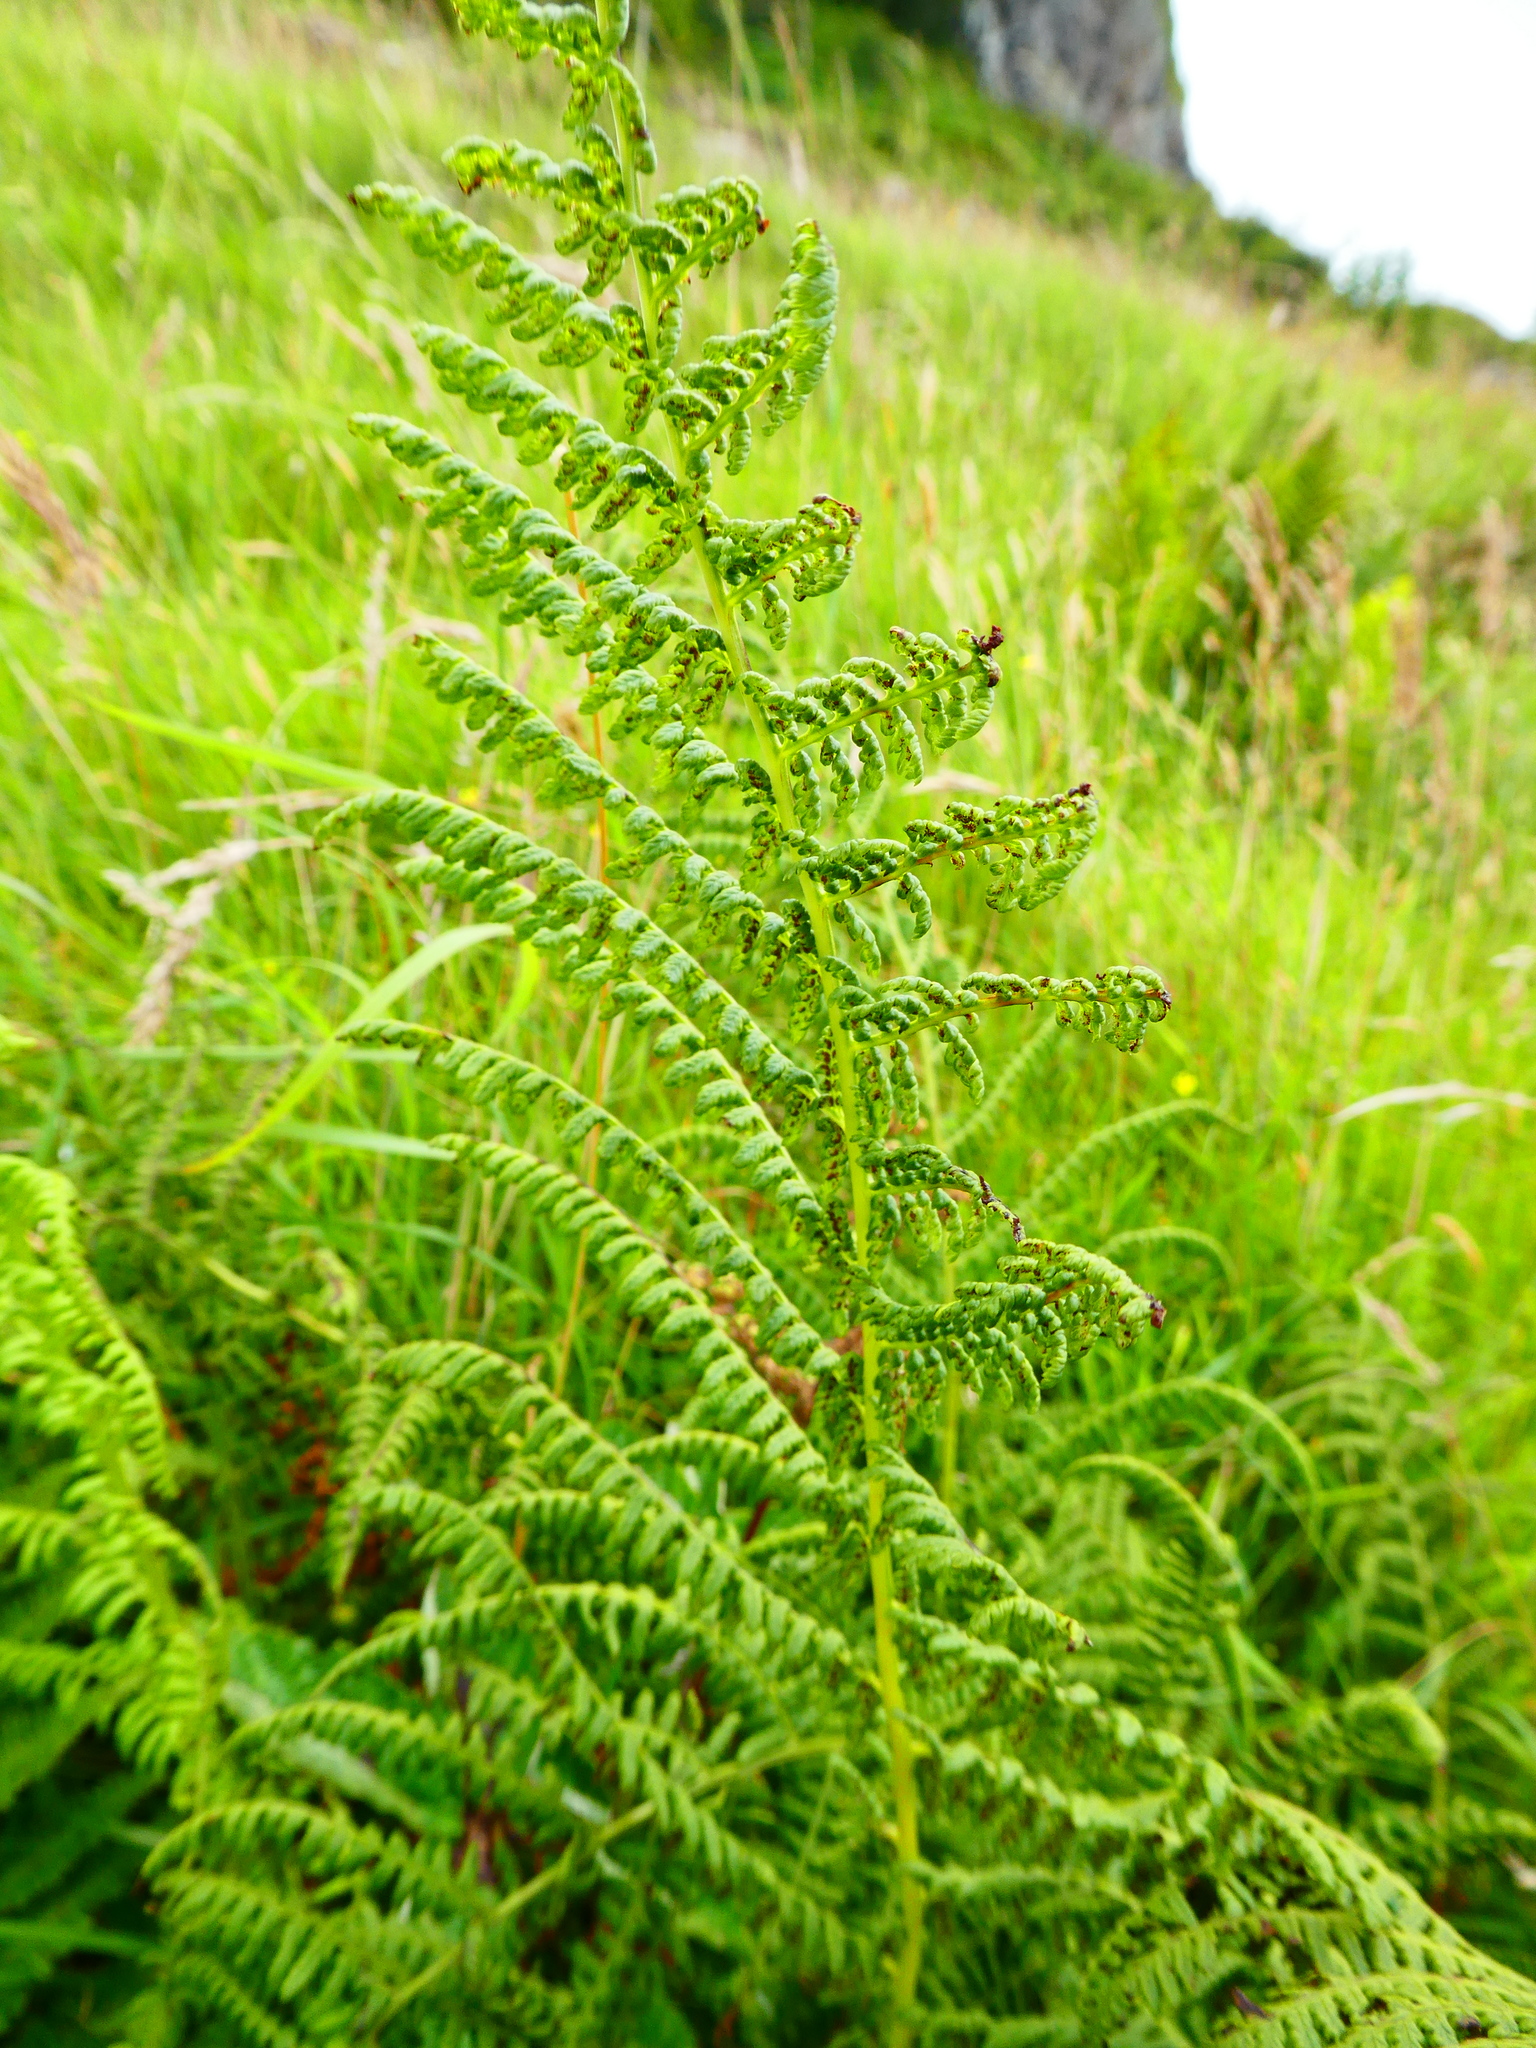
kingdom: Plantae
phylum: Tracheophyta
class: Polypodiopsida
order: Polypodiales
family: Dennstaedtiaceae
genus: Pteridium
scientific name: Pteridium aquilinum
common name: Bracken
